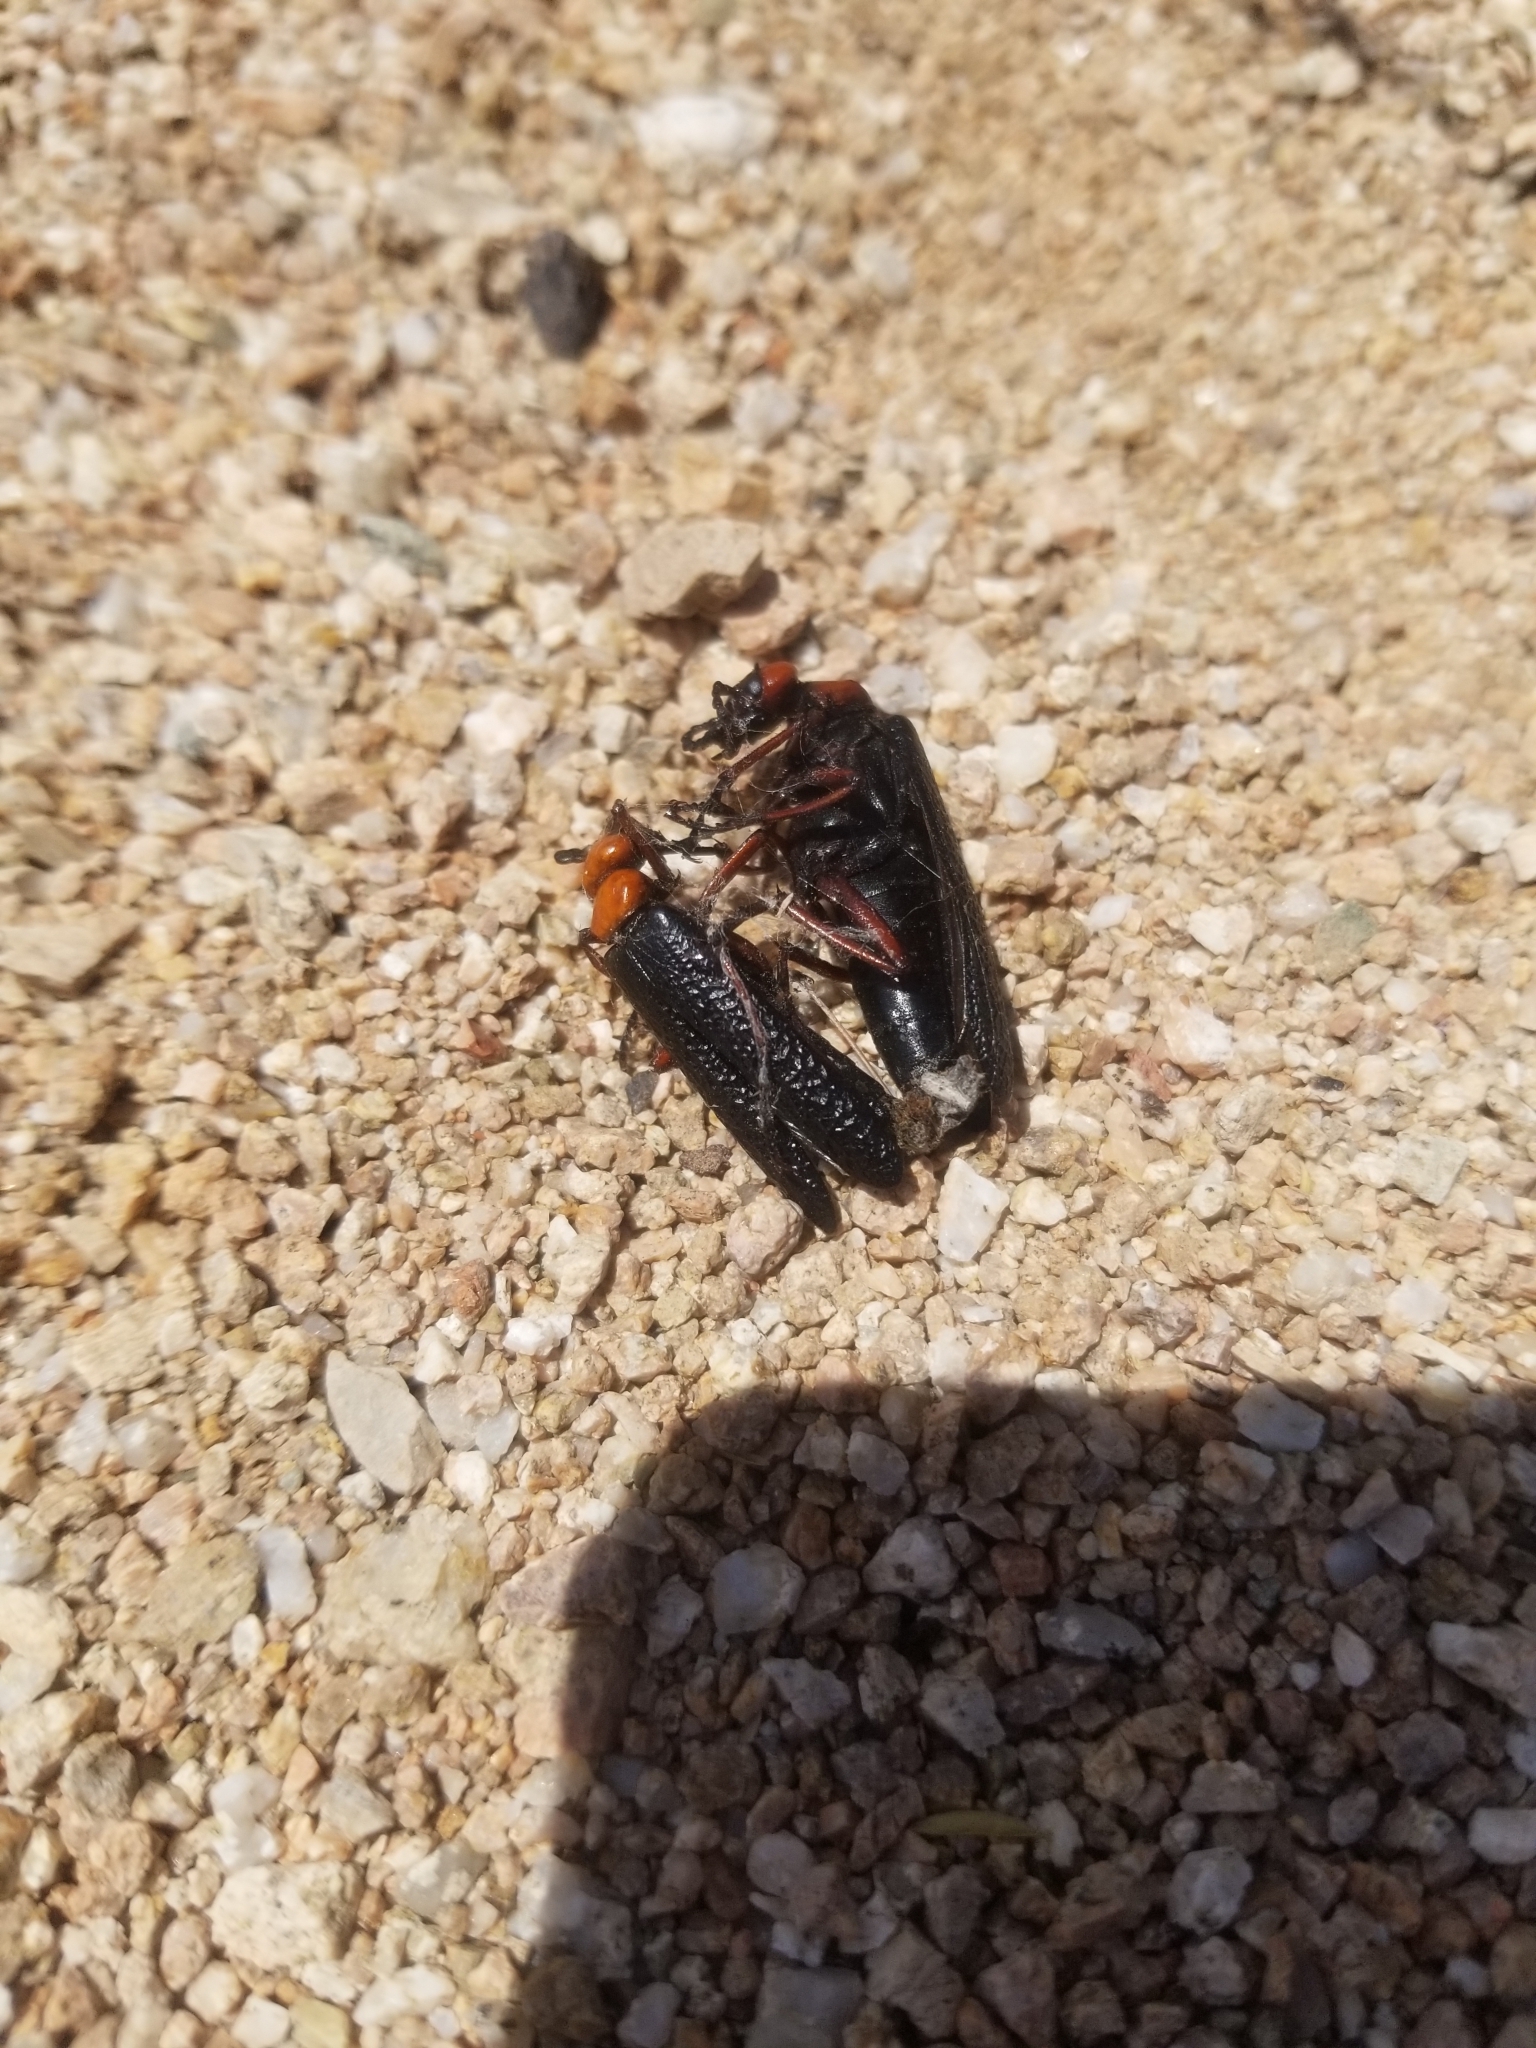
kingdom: Animalia
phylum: Arthropoda
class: Insecta
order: Coleoptera
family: Meloidae
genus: Lytta
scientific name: Lytta magister
